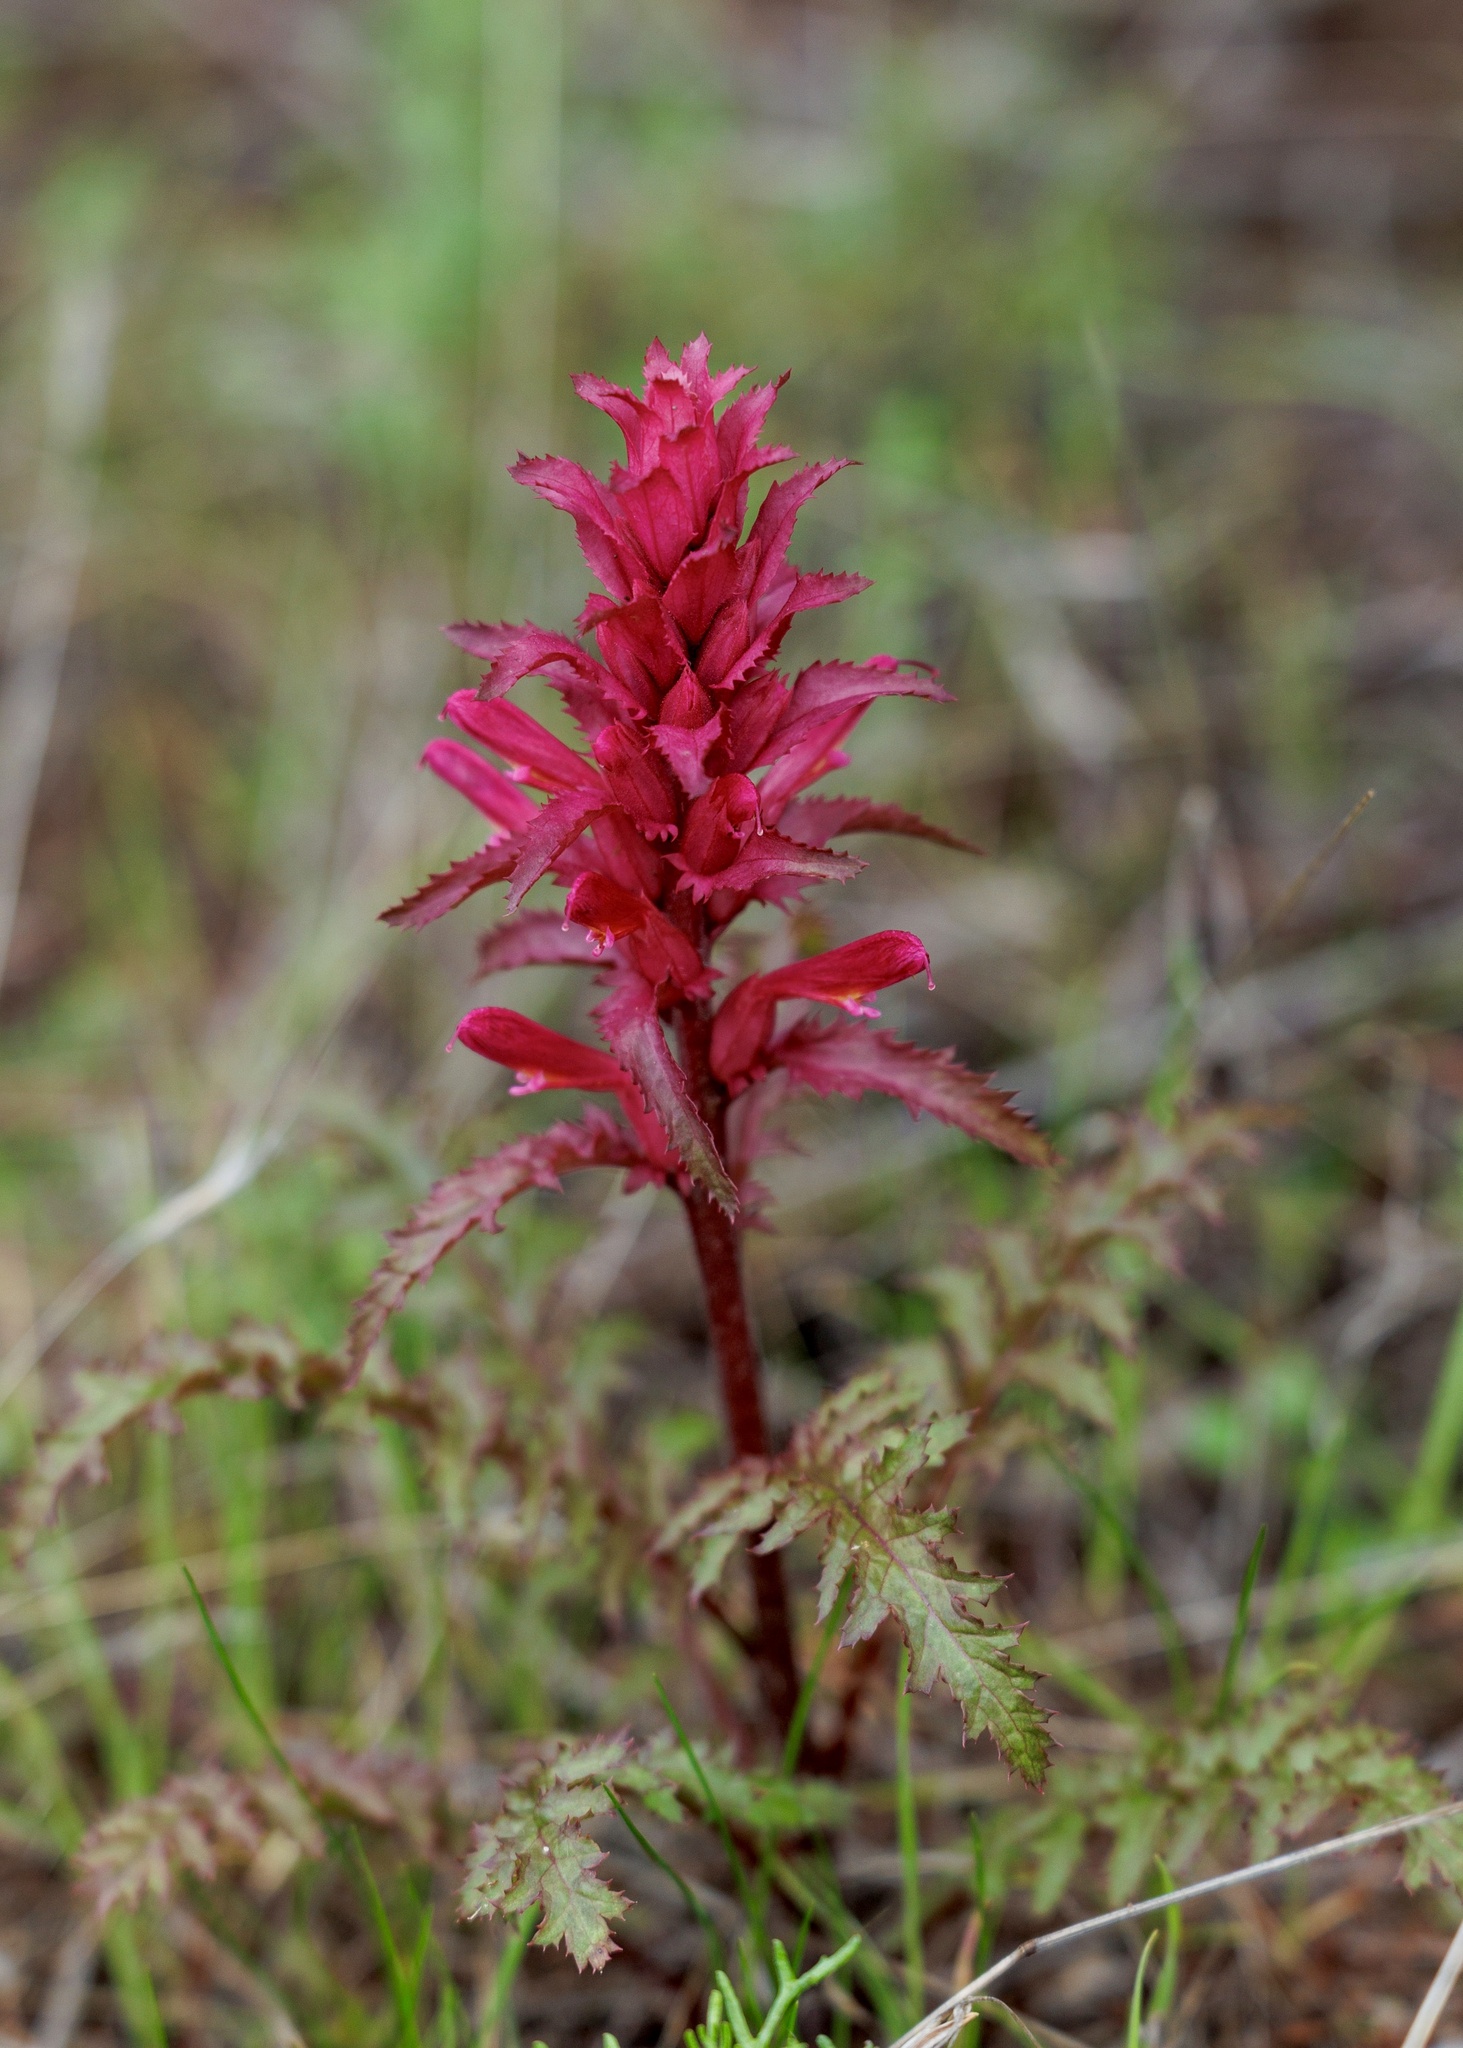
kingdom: Plantae
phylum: Tracheophyta
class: Magnoliopsida
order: Lamiales
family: Orobanchaceae
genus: Pedicularis
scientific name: Pedicularis densiflora
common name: Indian warrior
